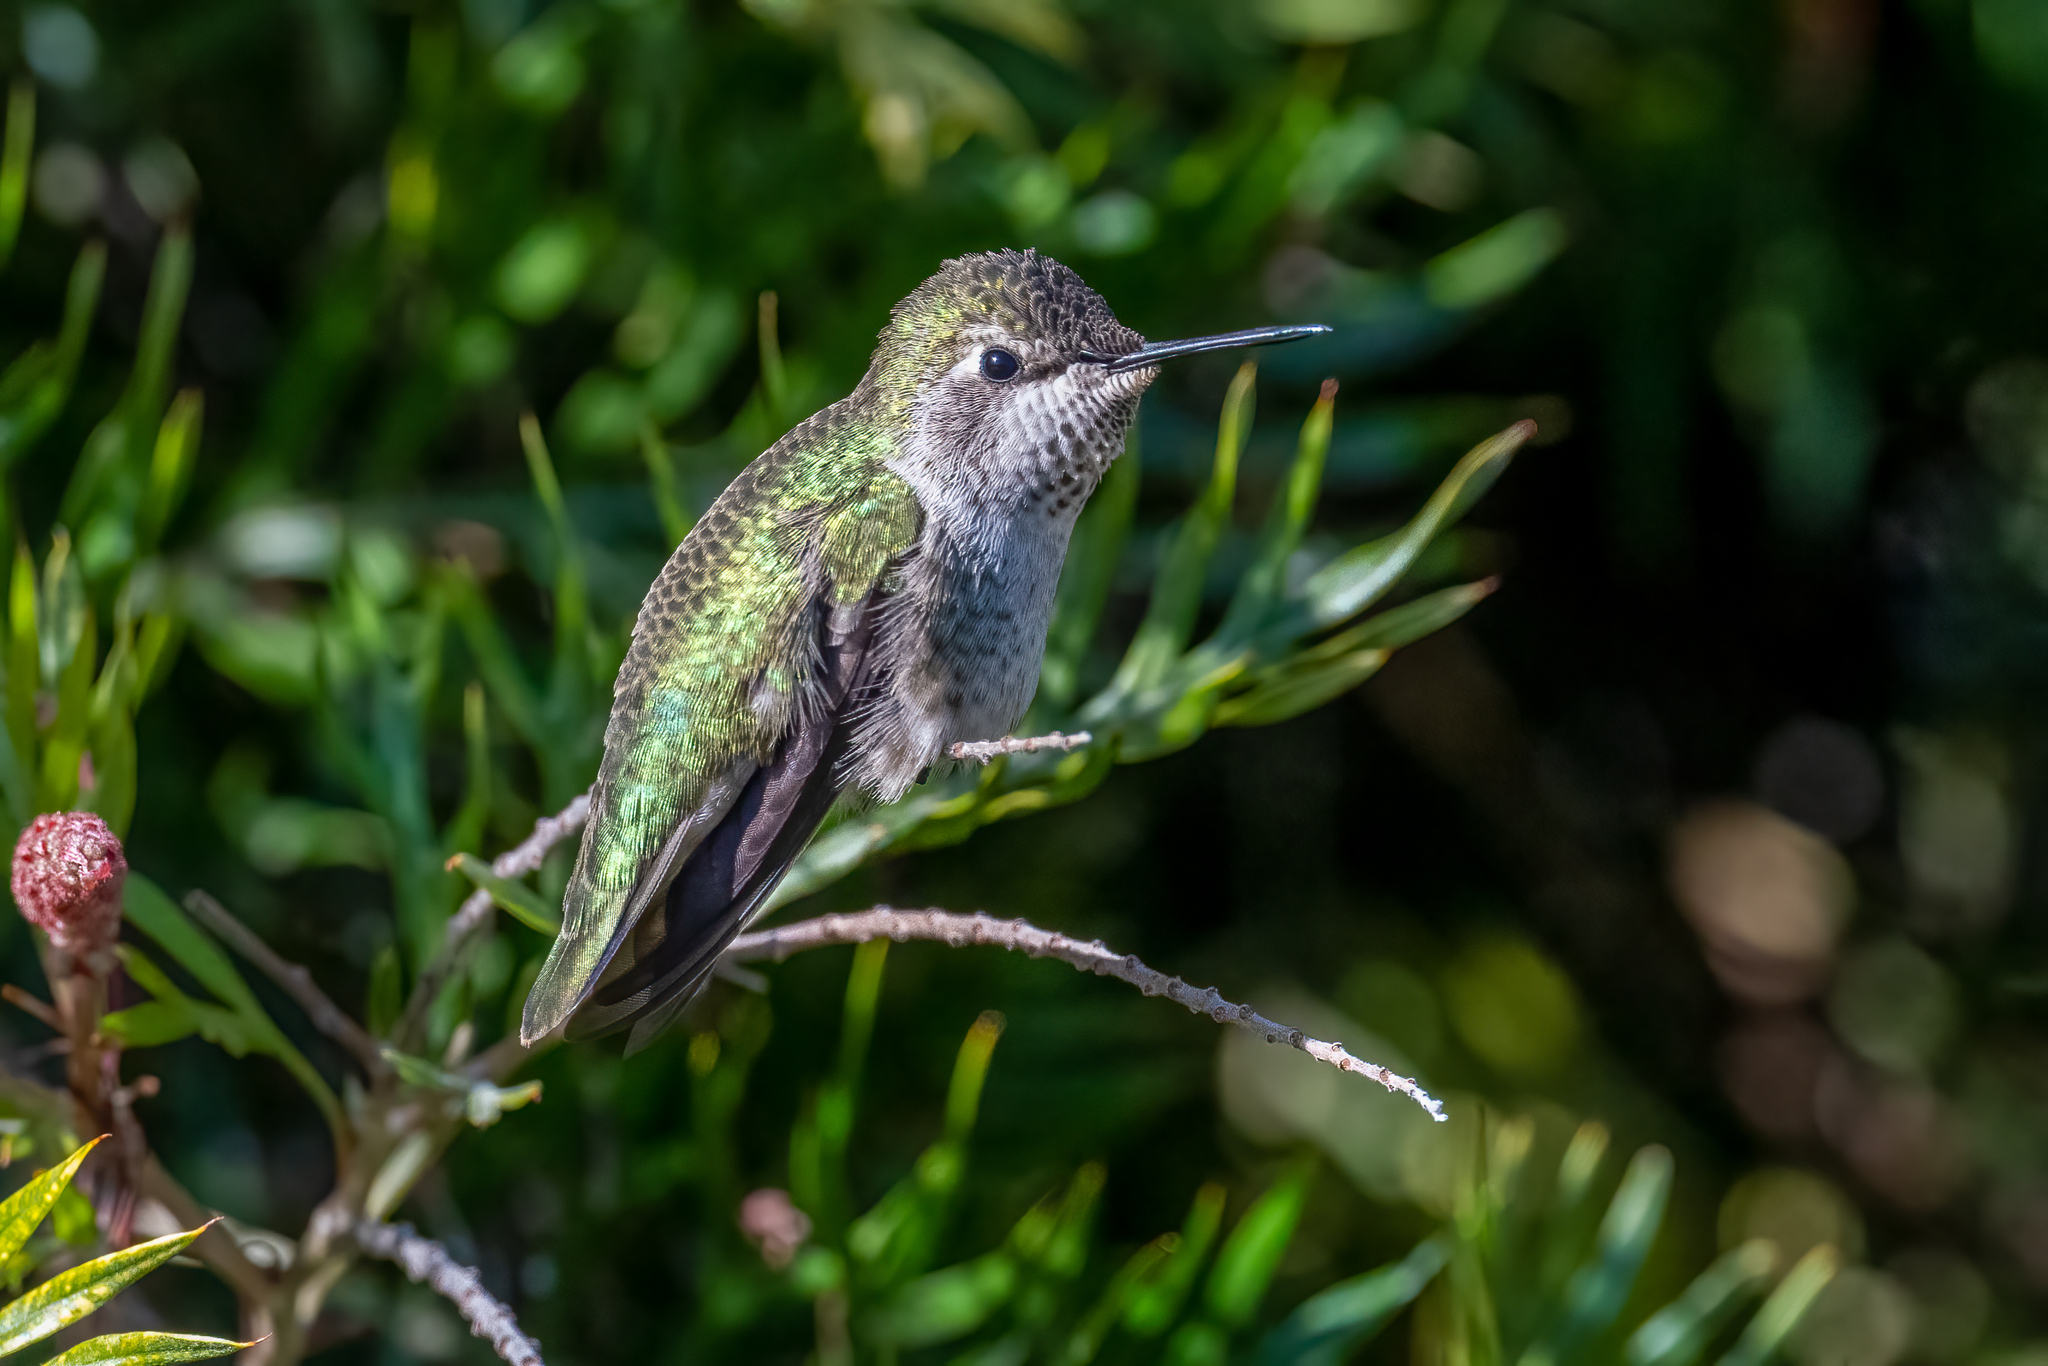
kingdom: Animalia
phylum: Chordata
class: Aves
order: Apodiformes
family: Trochilidae
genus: Calypte
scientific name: Calypte anna
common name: Anna's hummingbird
